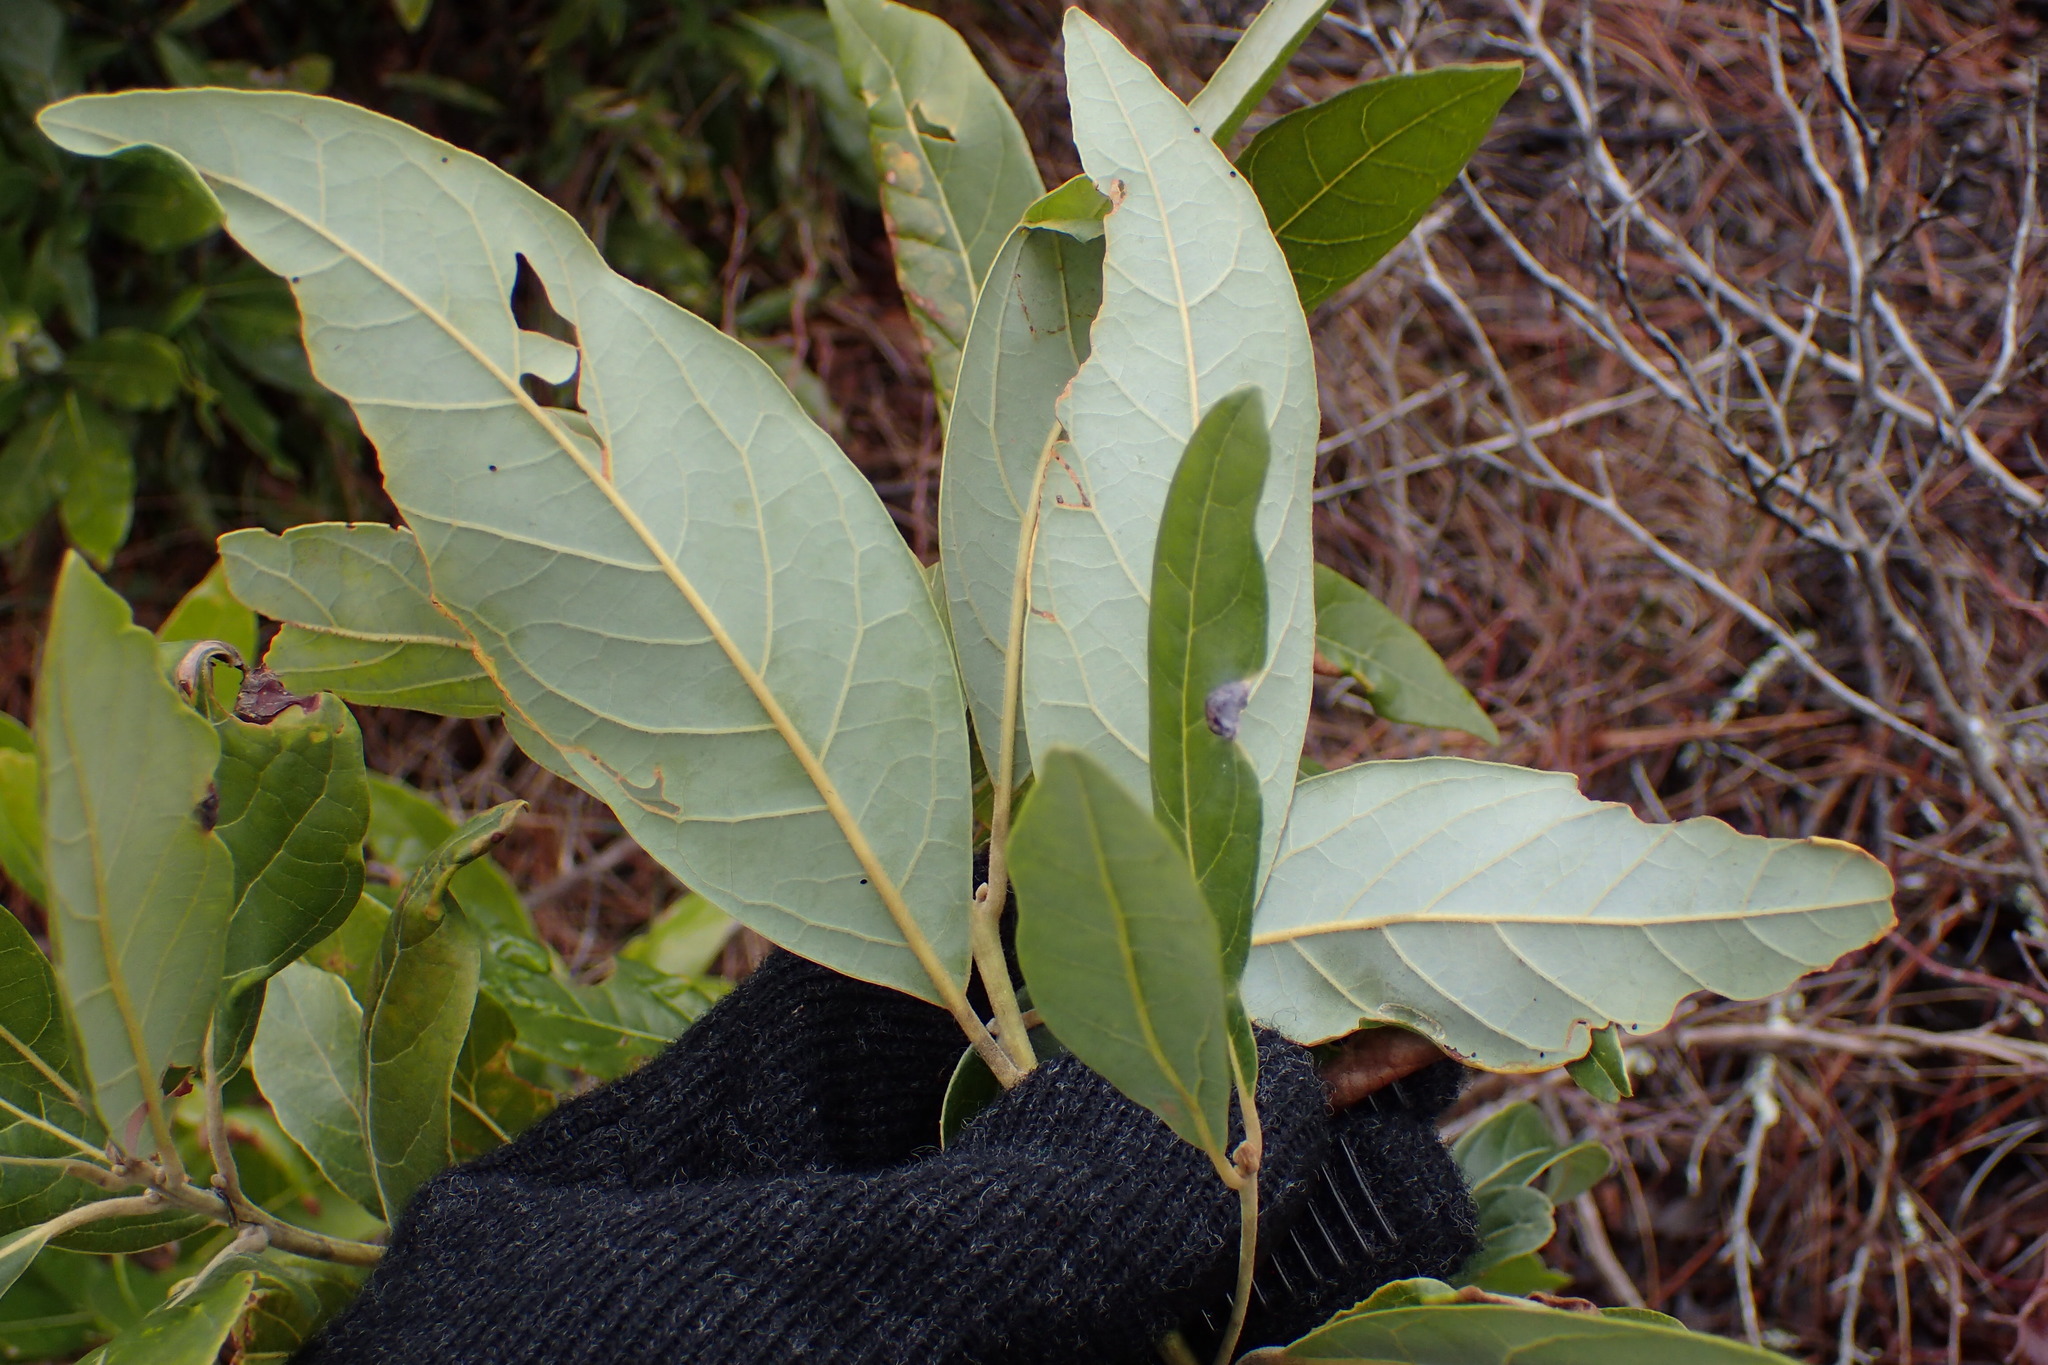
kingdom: Plantae
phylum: Tracheophyta
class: Magnoliopsida
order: Laurales
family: Lauraceae
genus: Persea
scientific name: Persea palustris
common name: Swampbay
